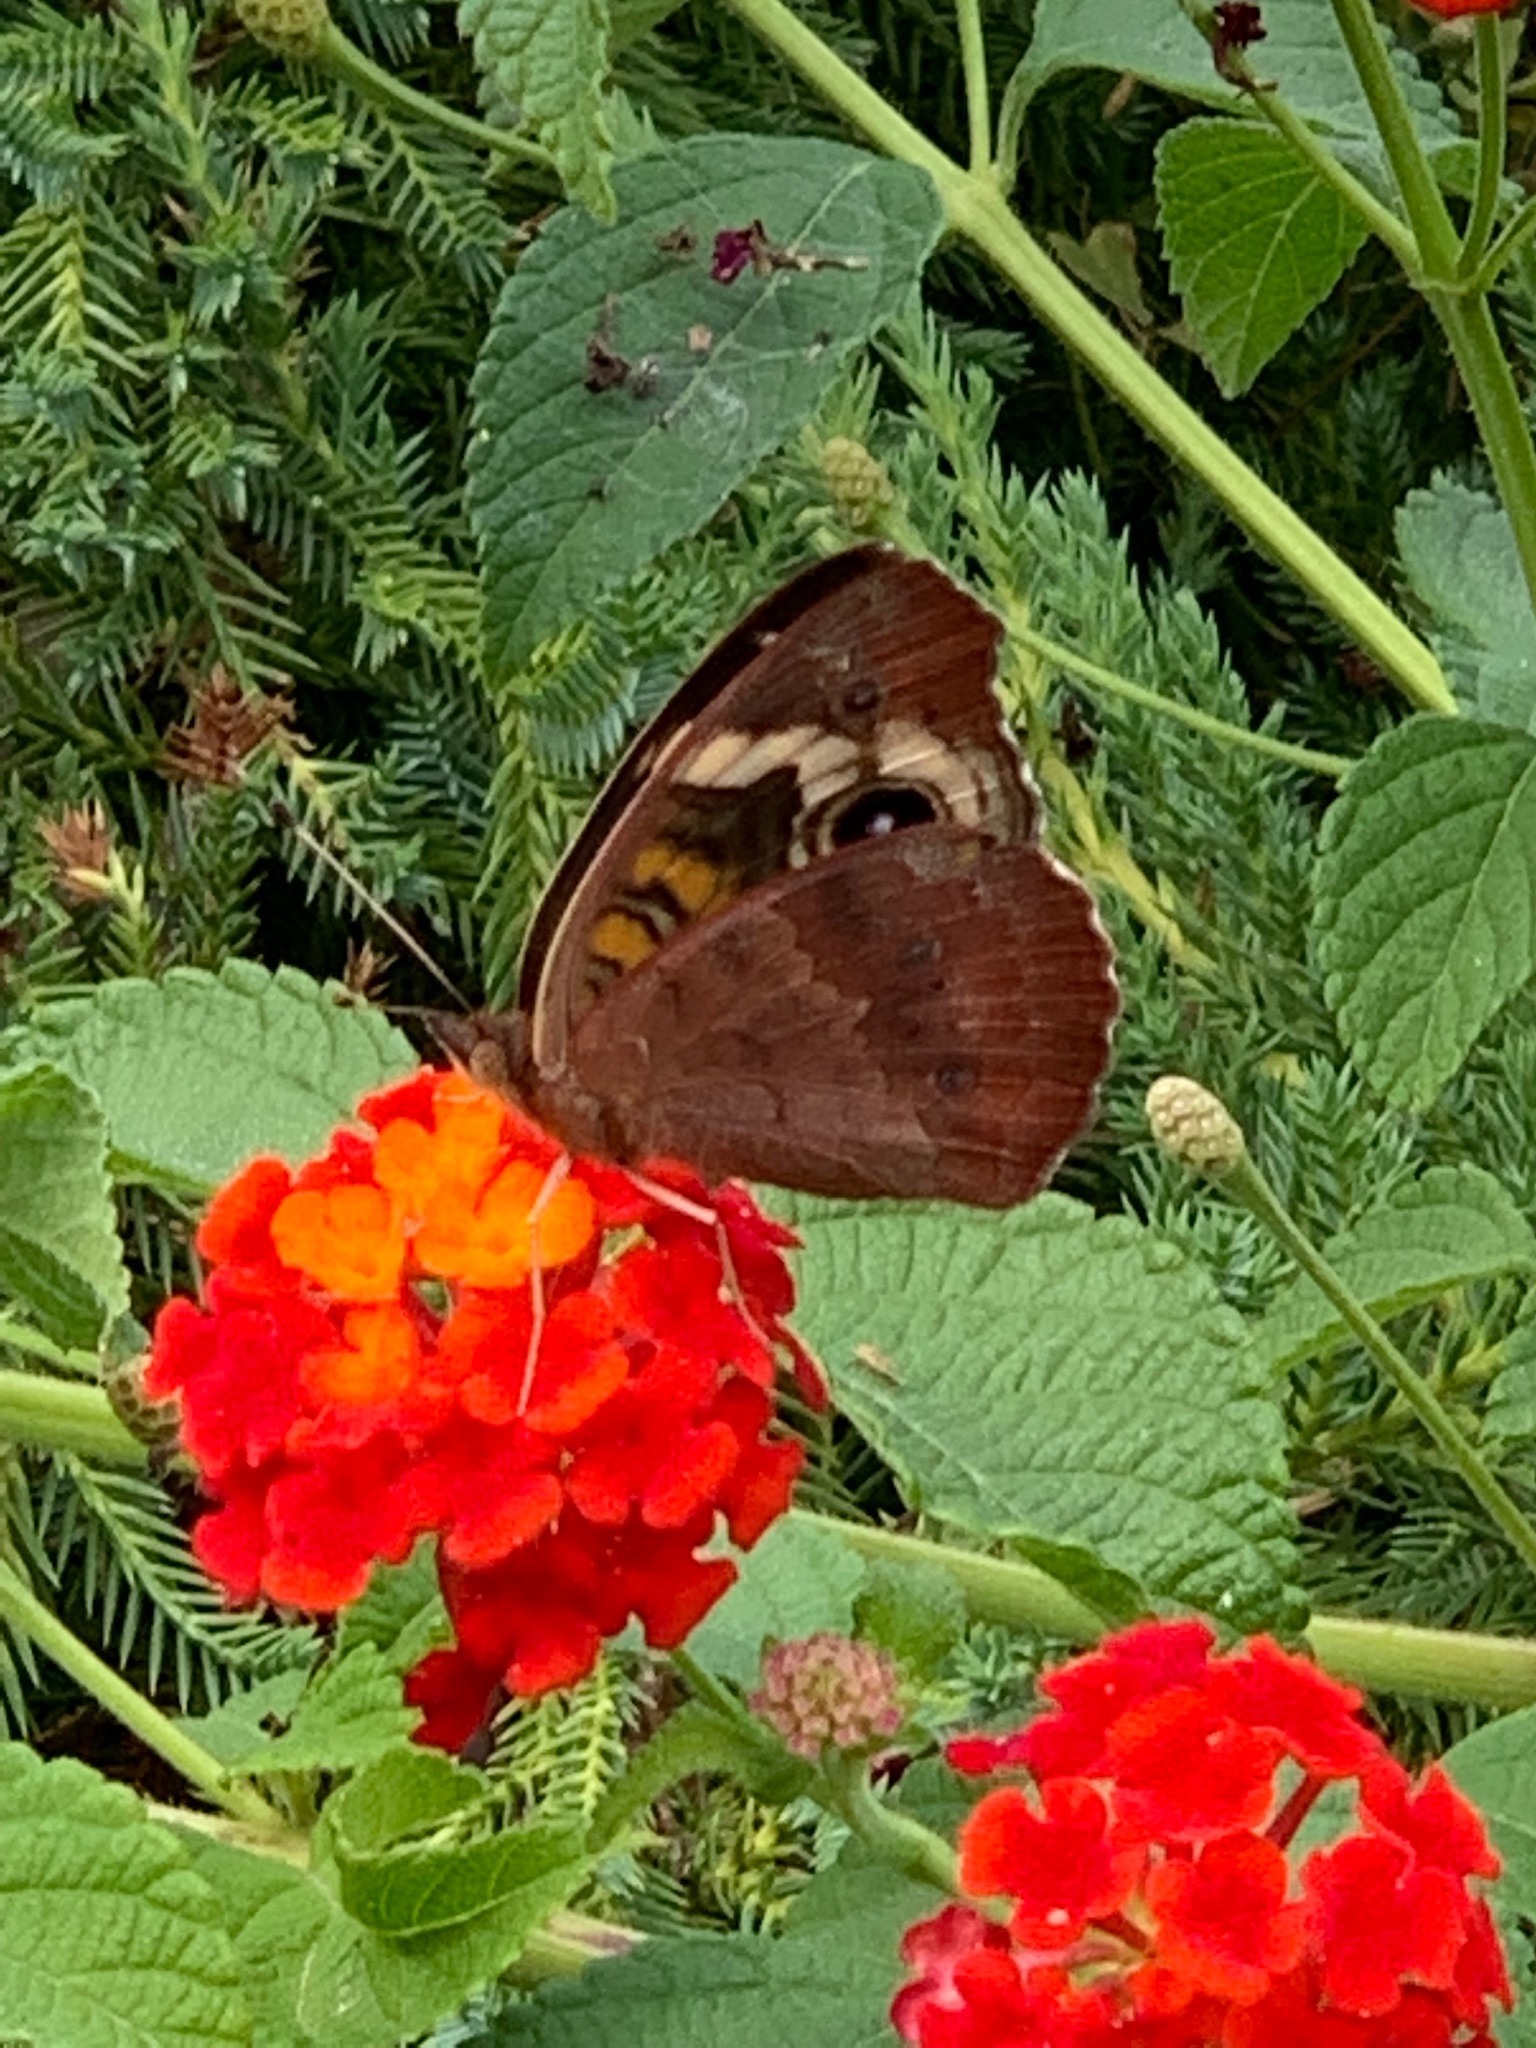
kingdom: Animalia
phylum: Arthropoda
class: Insecta
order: Lepidoptera
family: Nymphalidae
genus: Junonia
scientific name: Junonia coenia
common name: Common buckeye
